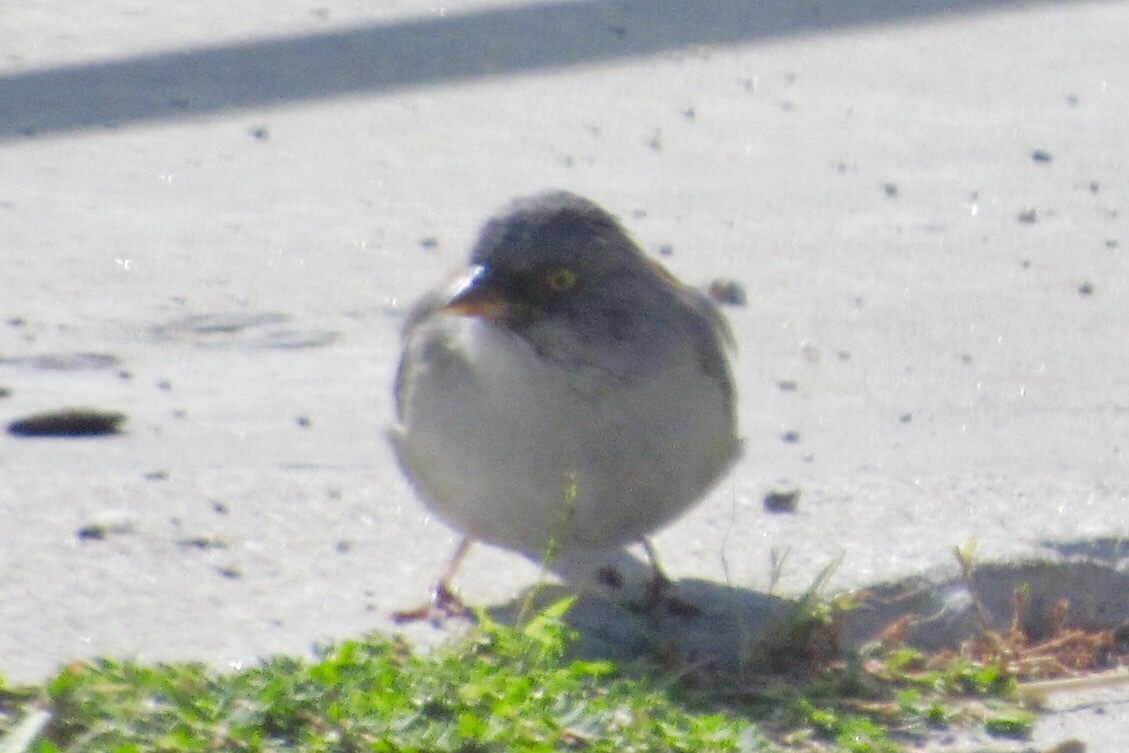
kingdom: Animalia
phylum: Chordata
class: Aves
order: Passeriformes
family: Passerellidae
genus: Junco
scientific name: Junco phaeonotus
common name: Yellow-eyed junco
